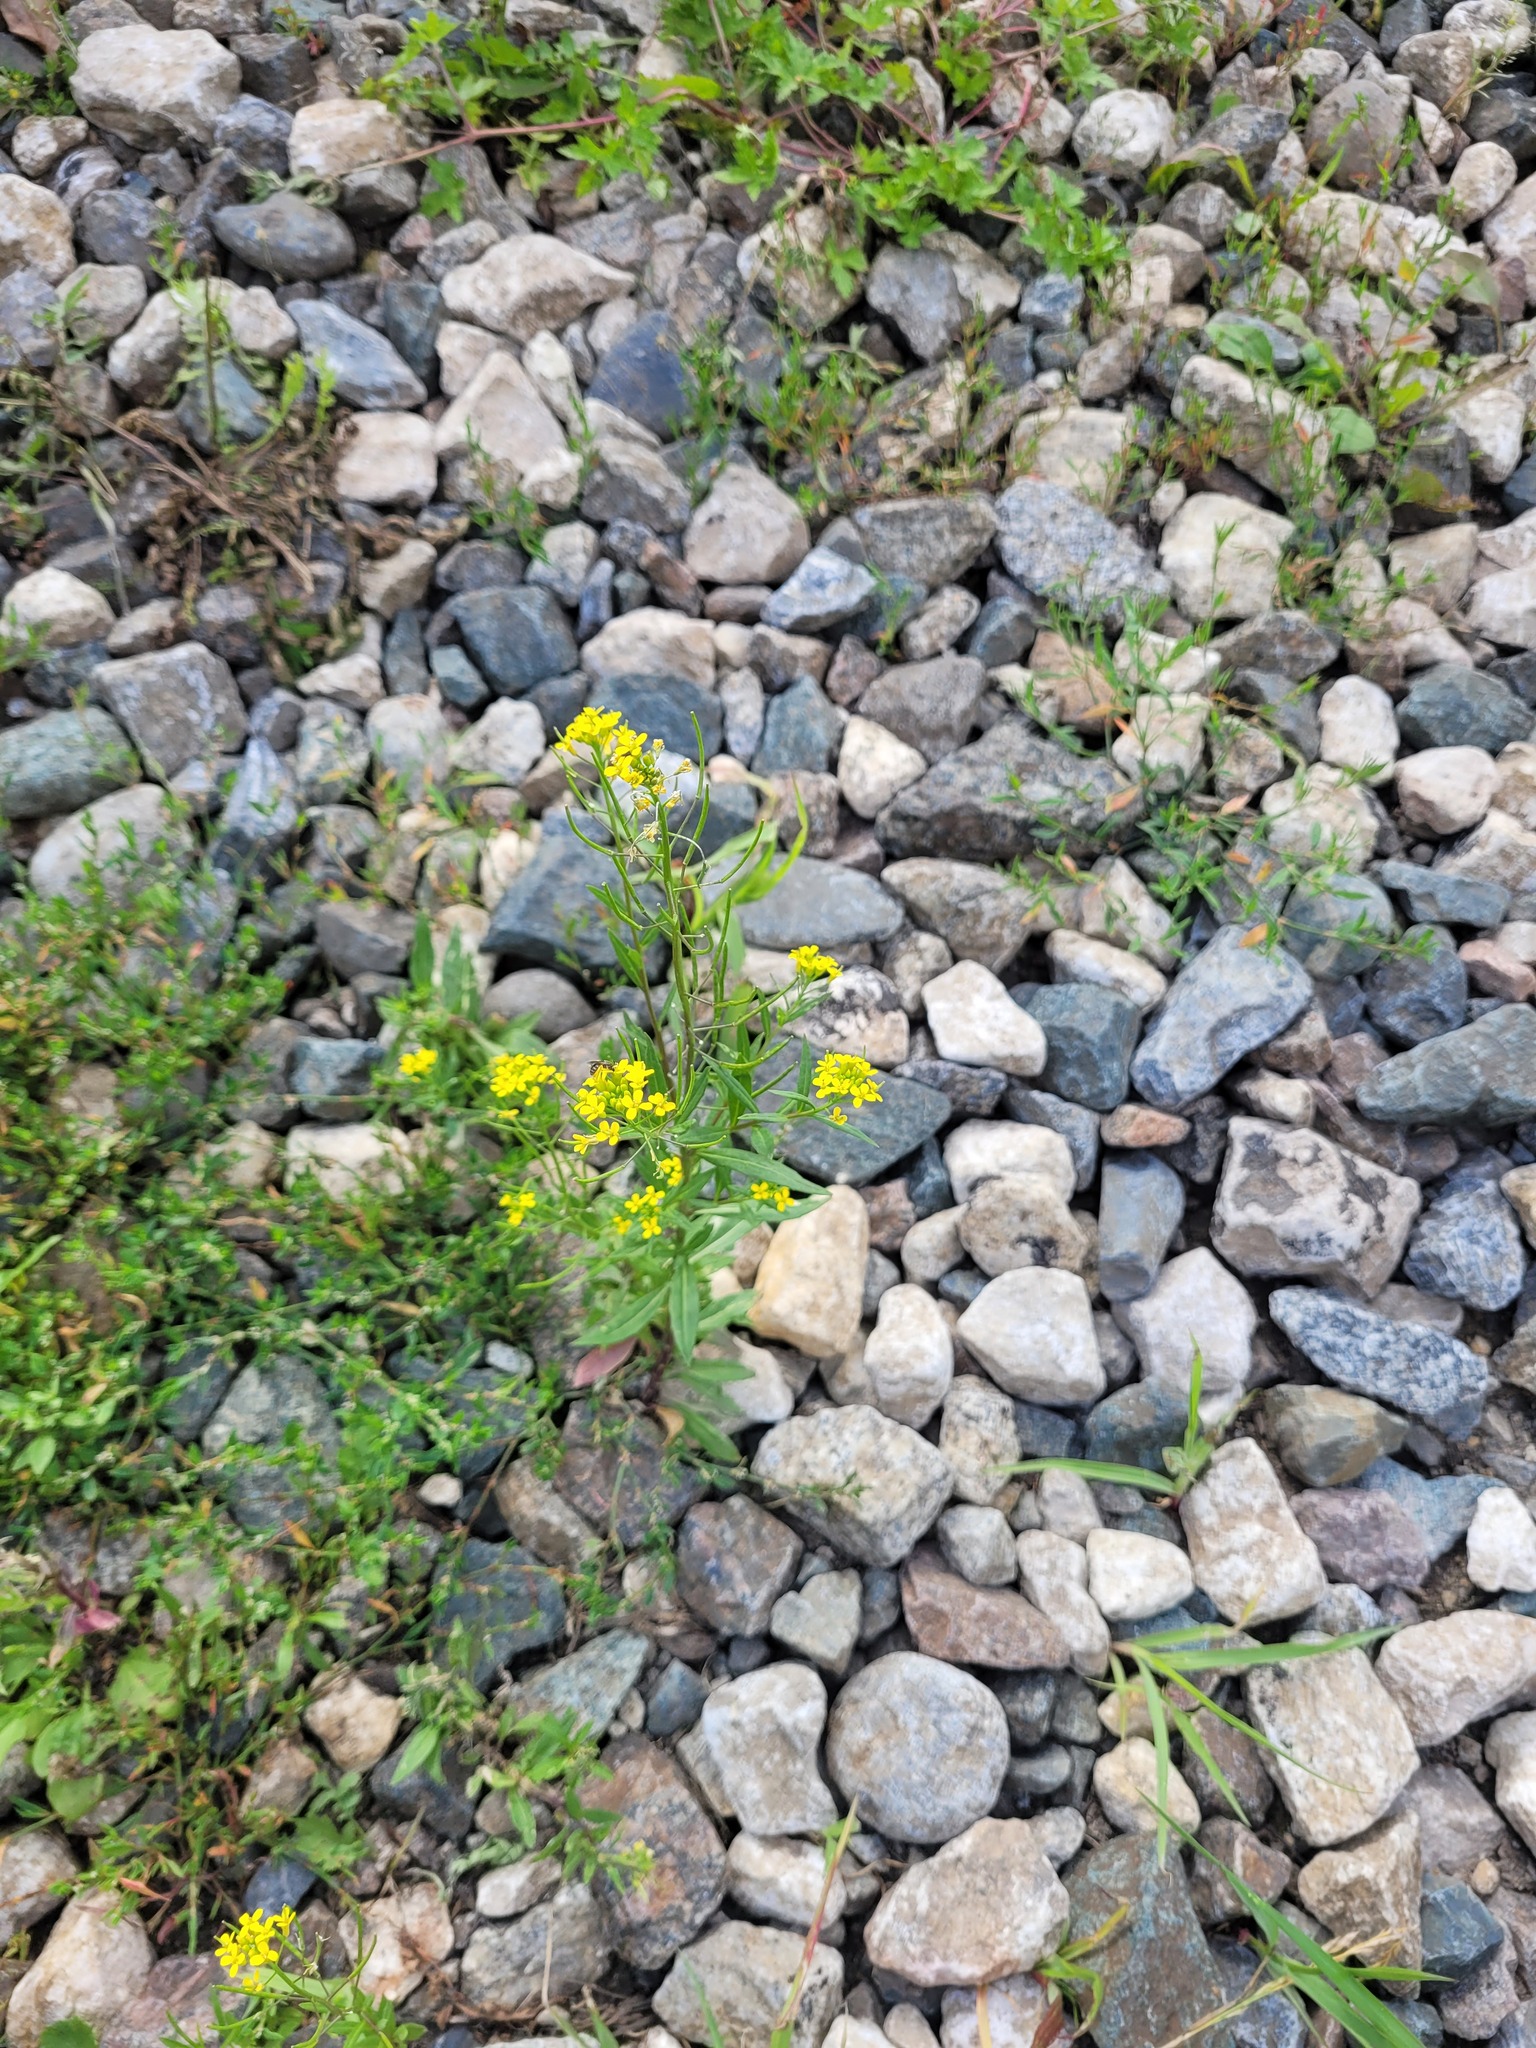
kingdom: Plantae
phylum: Tracheophyta
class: Magnoliopsida
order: Brassicales
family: Brassicaceae
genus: Erysimum
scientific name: Erysimum cheiranthoides
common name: Treacle mustard
